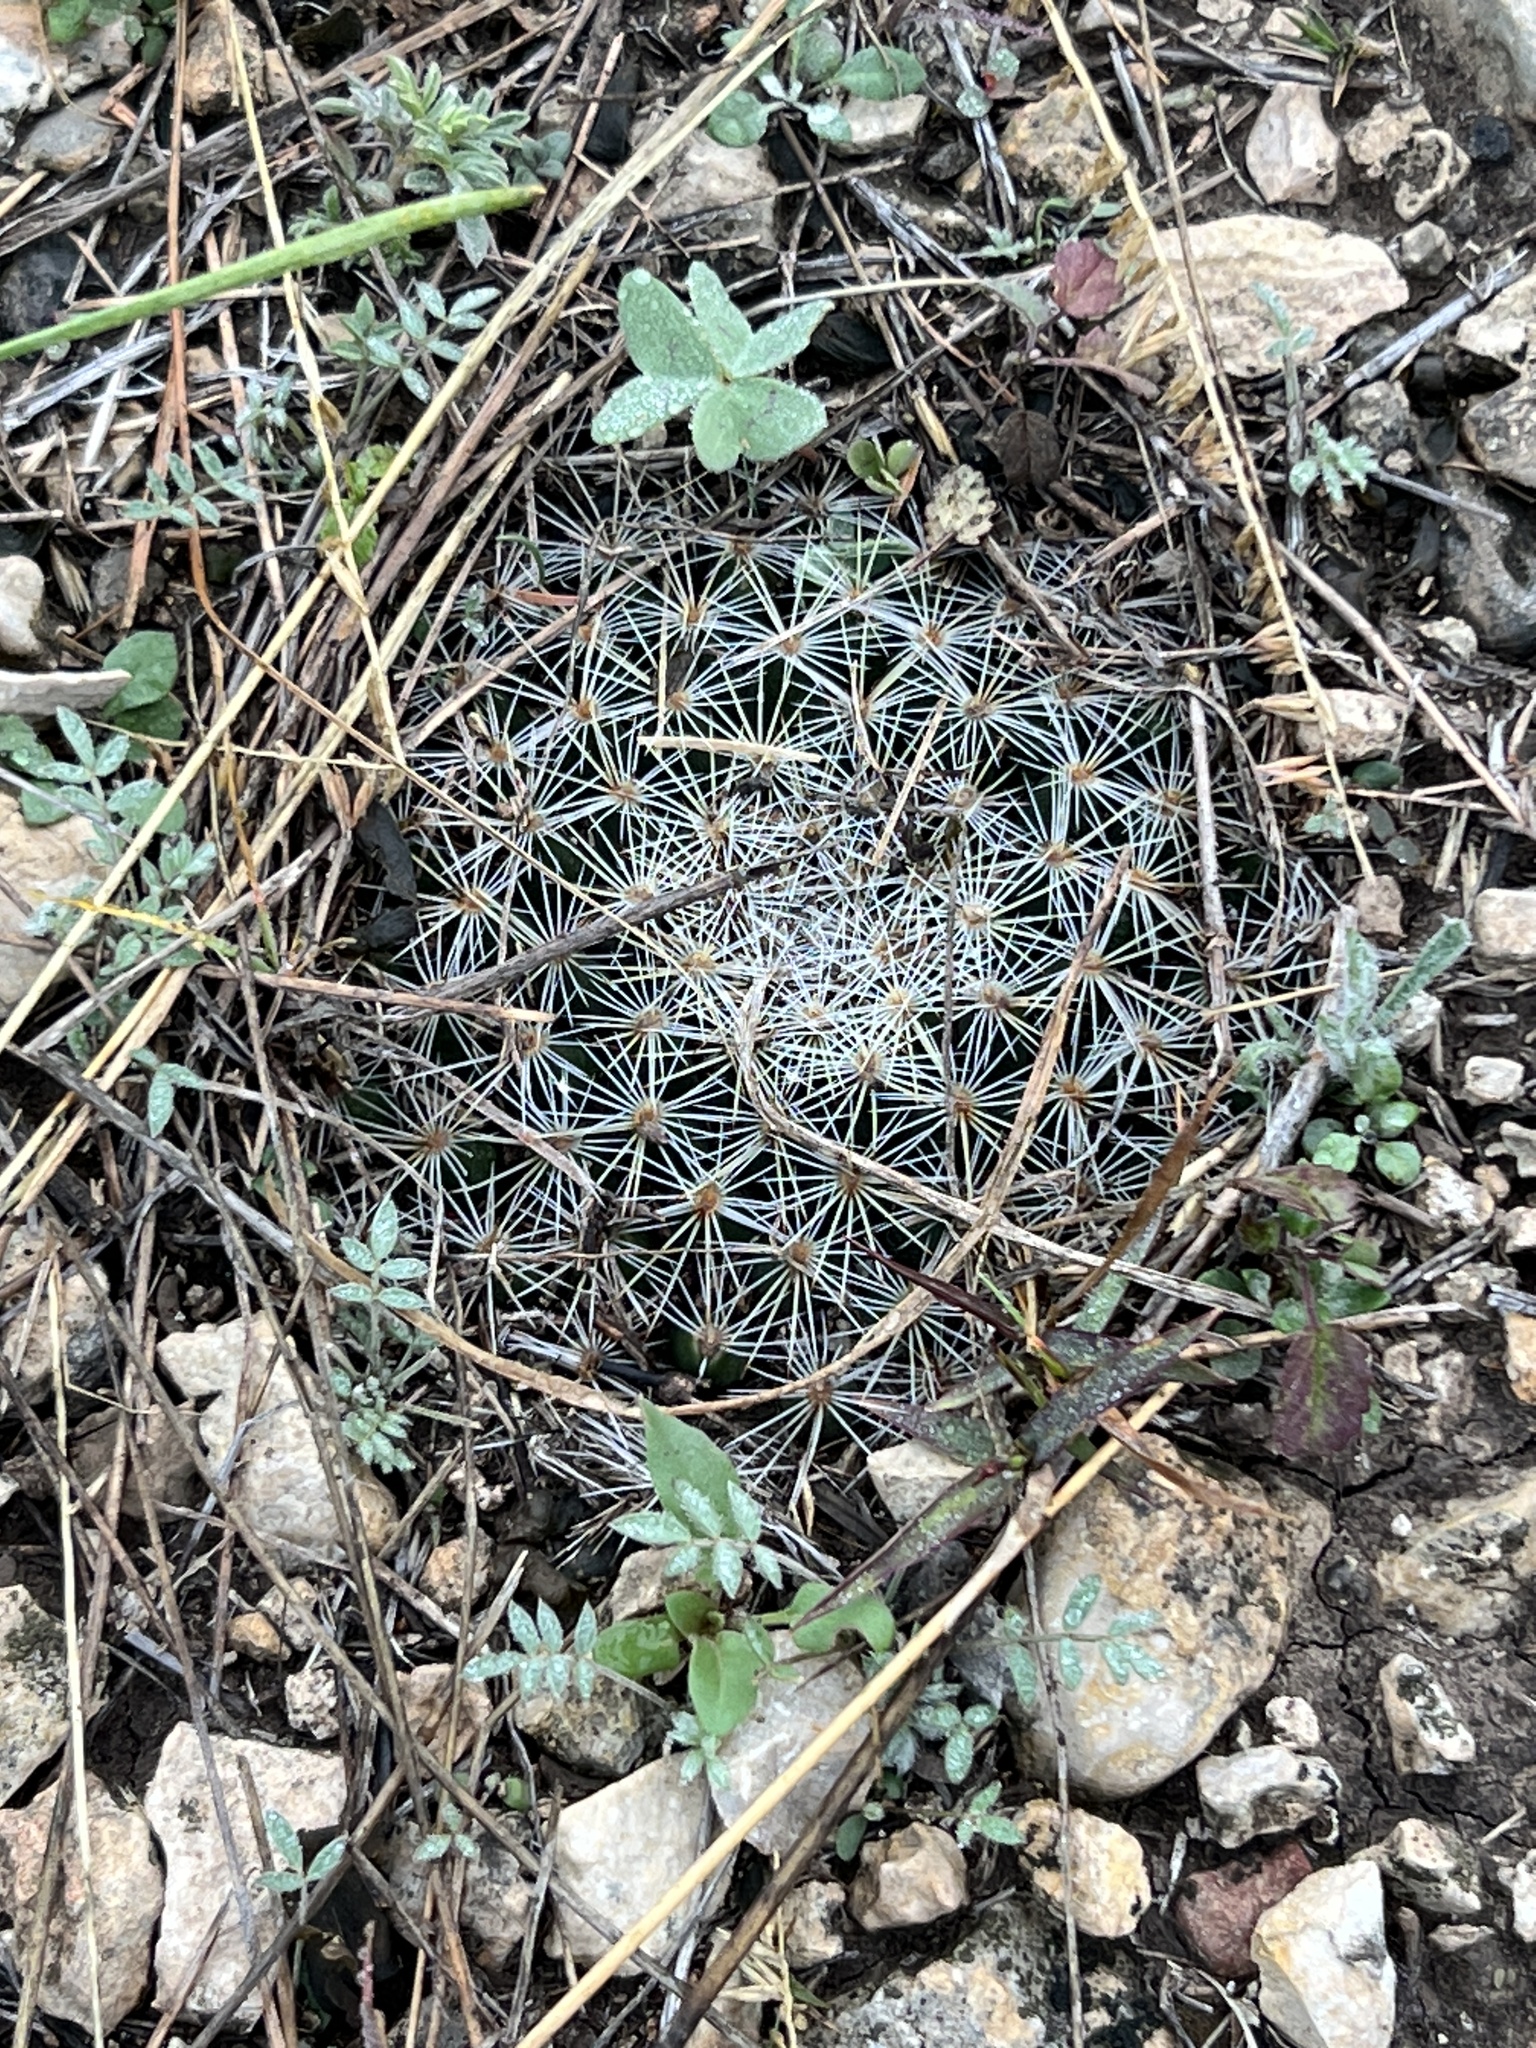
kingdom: Plantae
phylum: Tracheophyta
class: Magnoliopsida
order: Caryophyllales
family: Cactaceae
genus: Mammillaria
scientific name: Mammillaria heyderi
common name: Little nipple cactus
